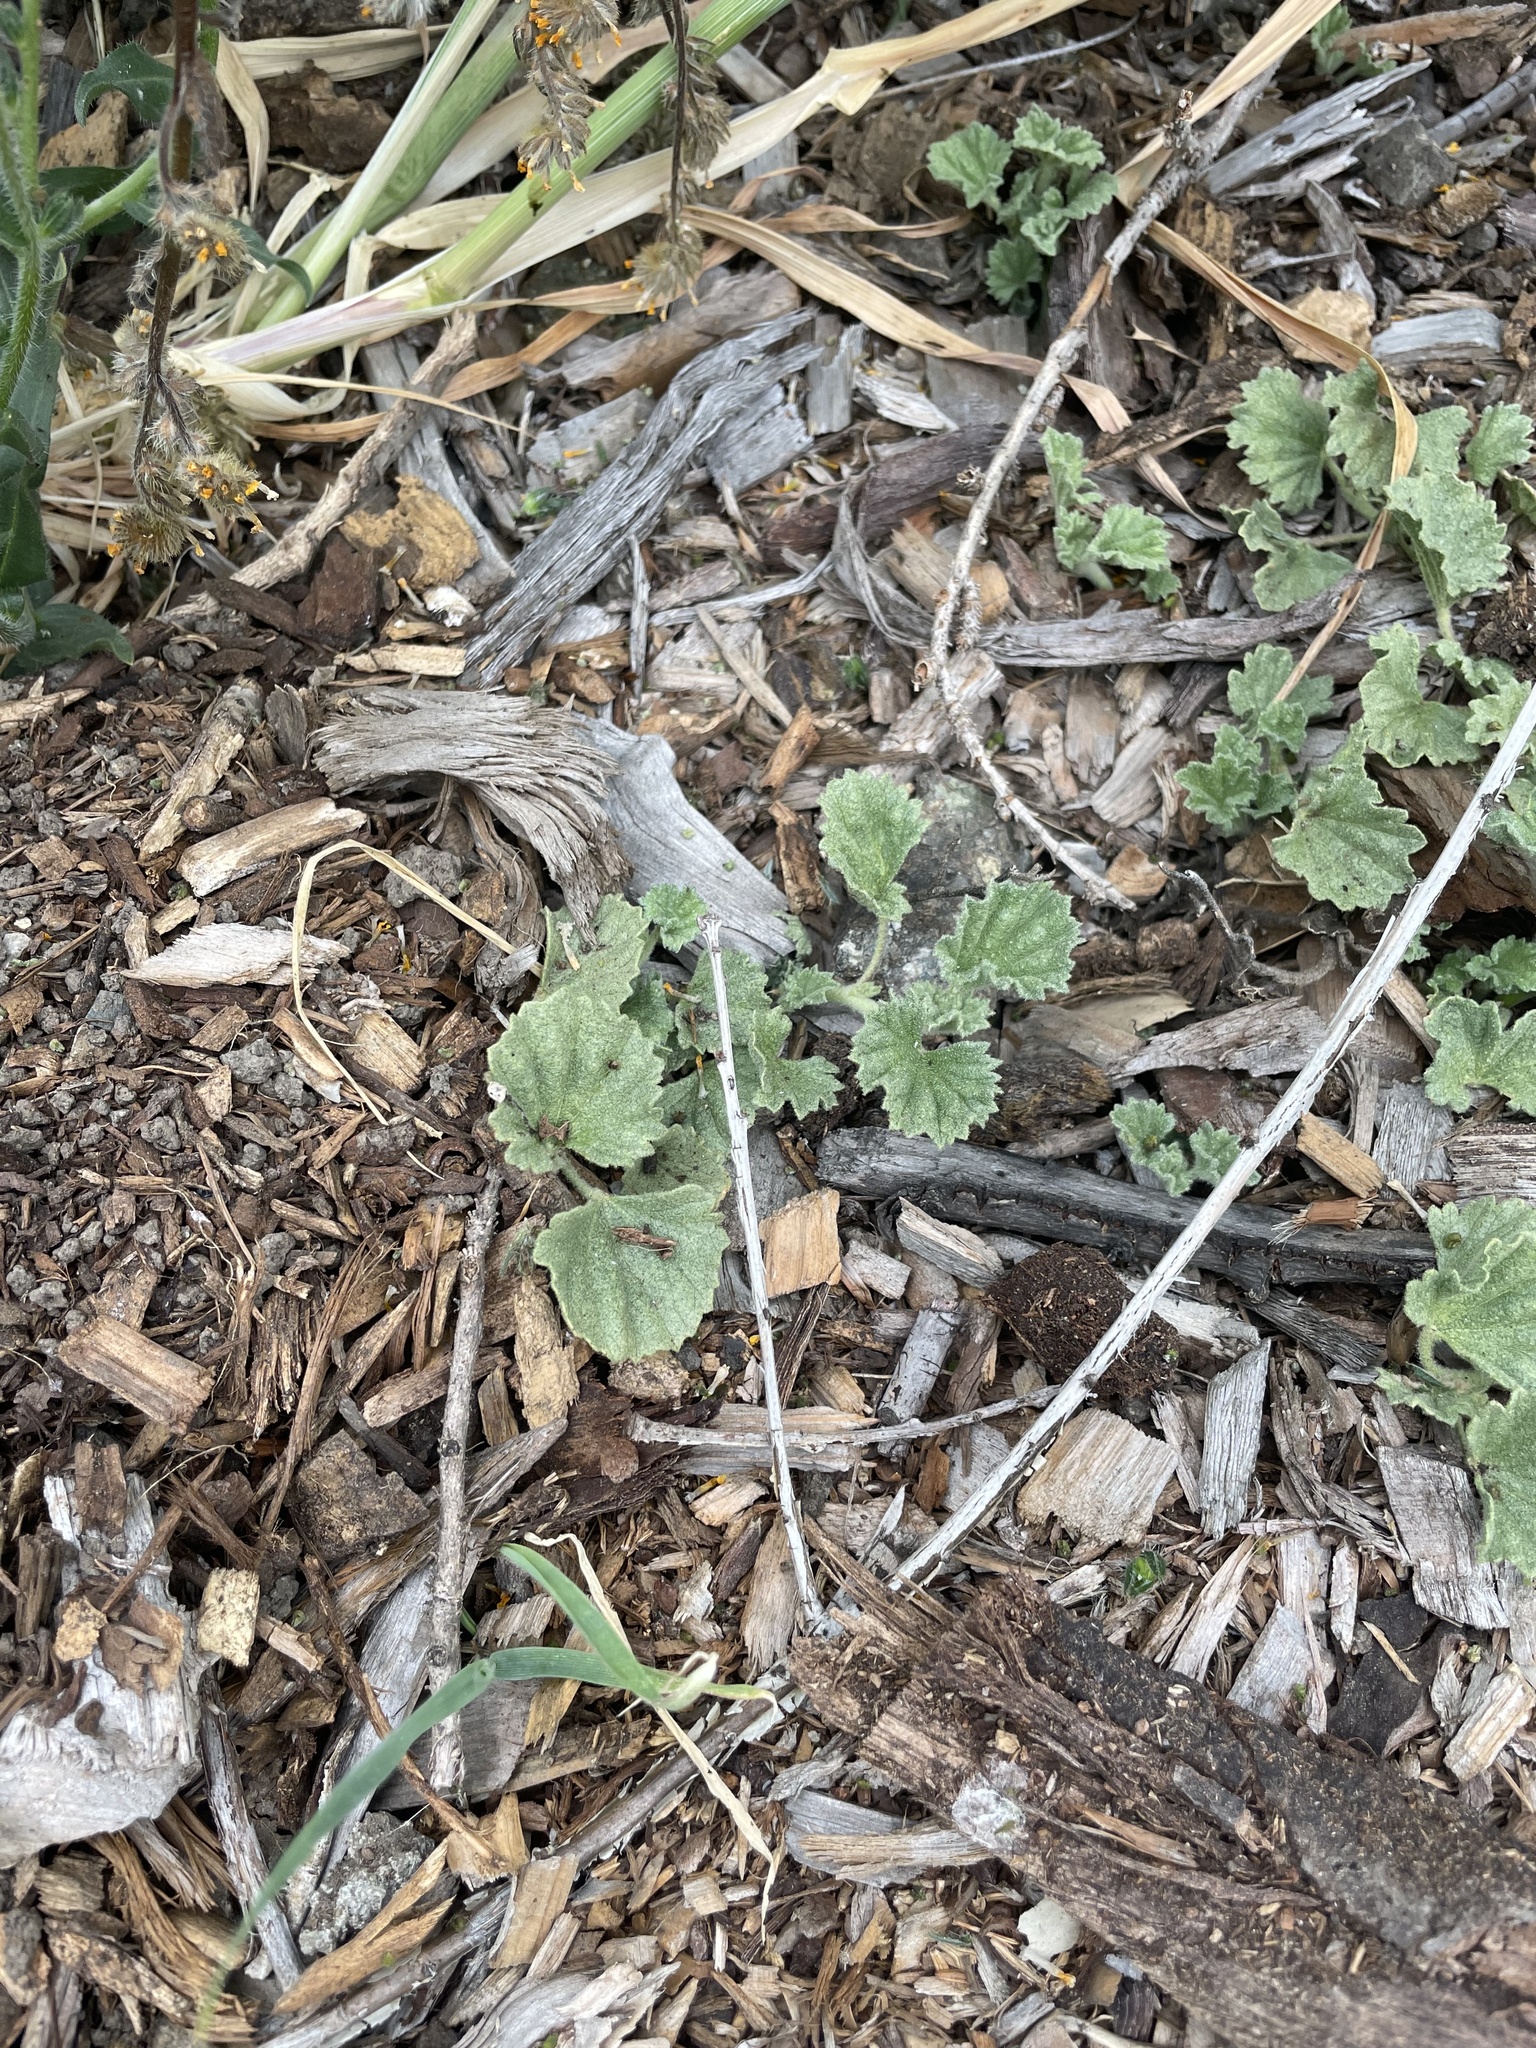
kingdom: Plantae
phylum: Tracheophyta
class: Magnoliopsida
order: Malvales
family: Malvaceae
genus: Malvella
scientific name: Malvella leprosa
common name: Alkali-mallow
